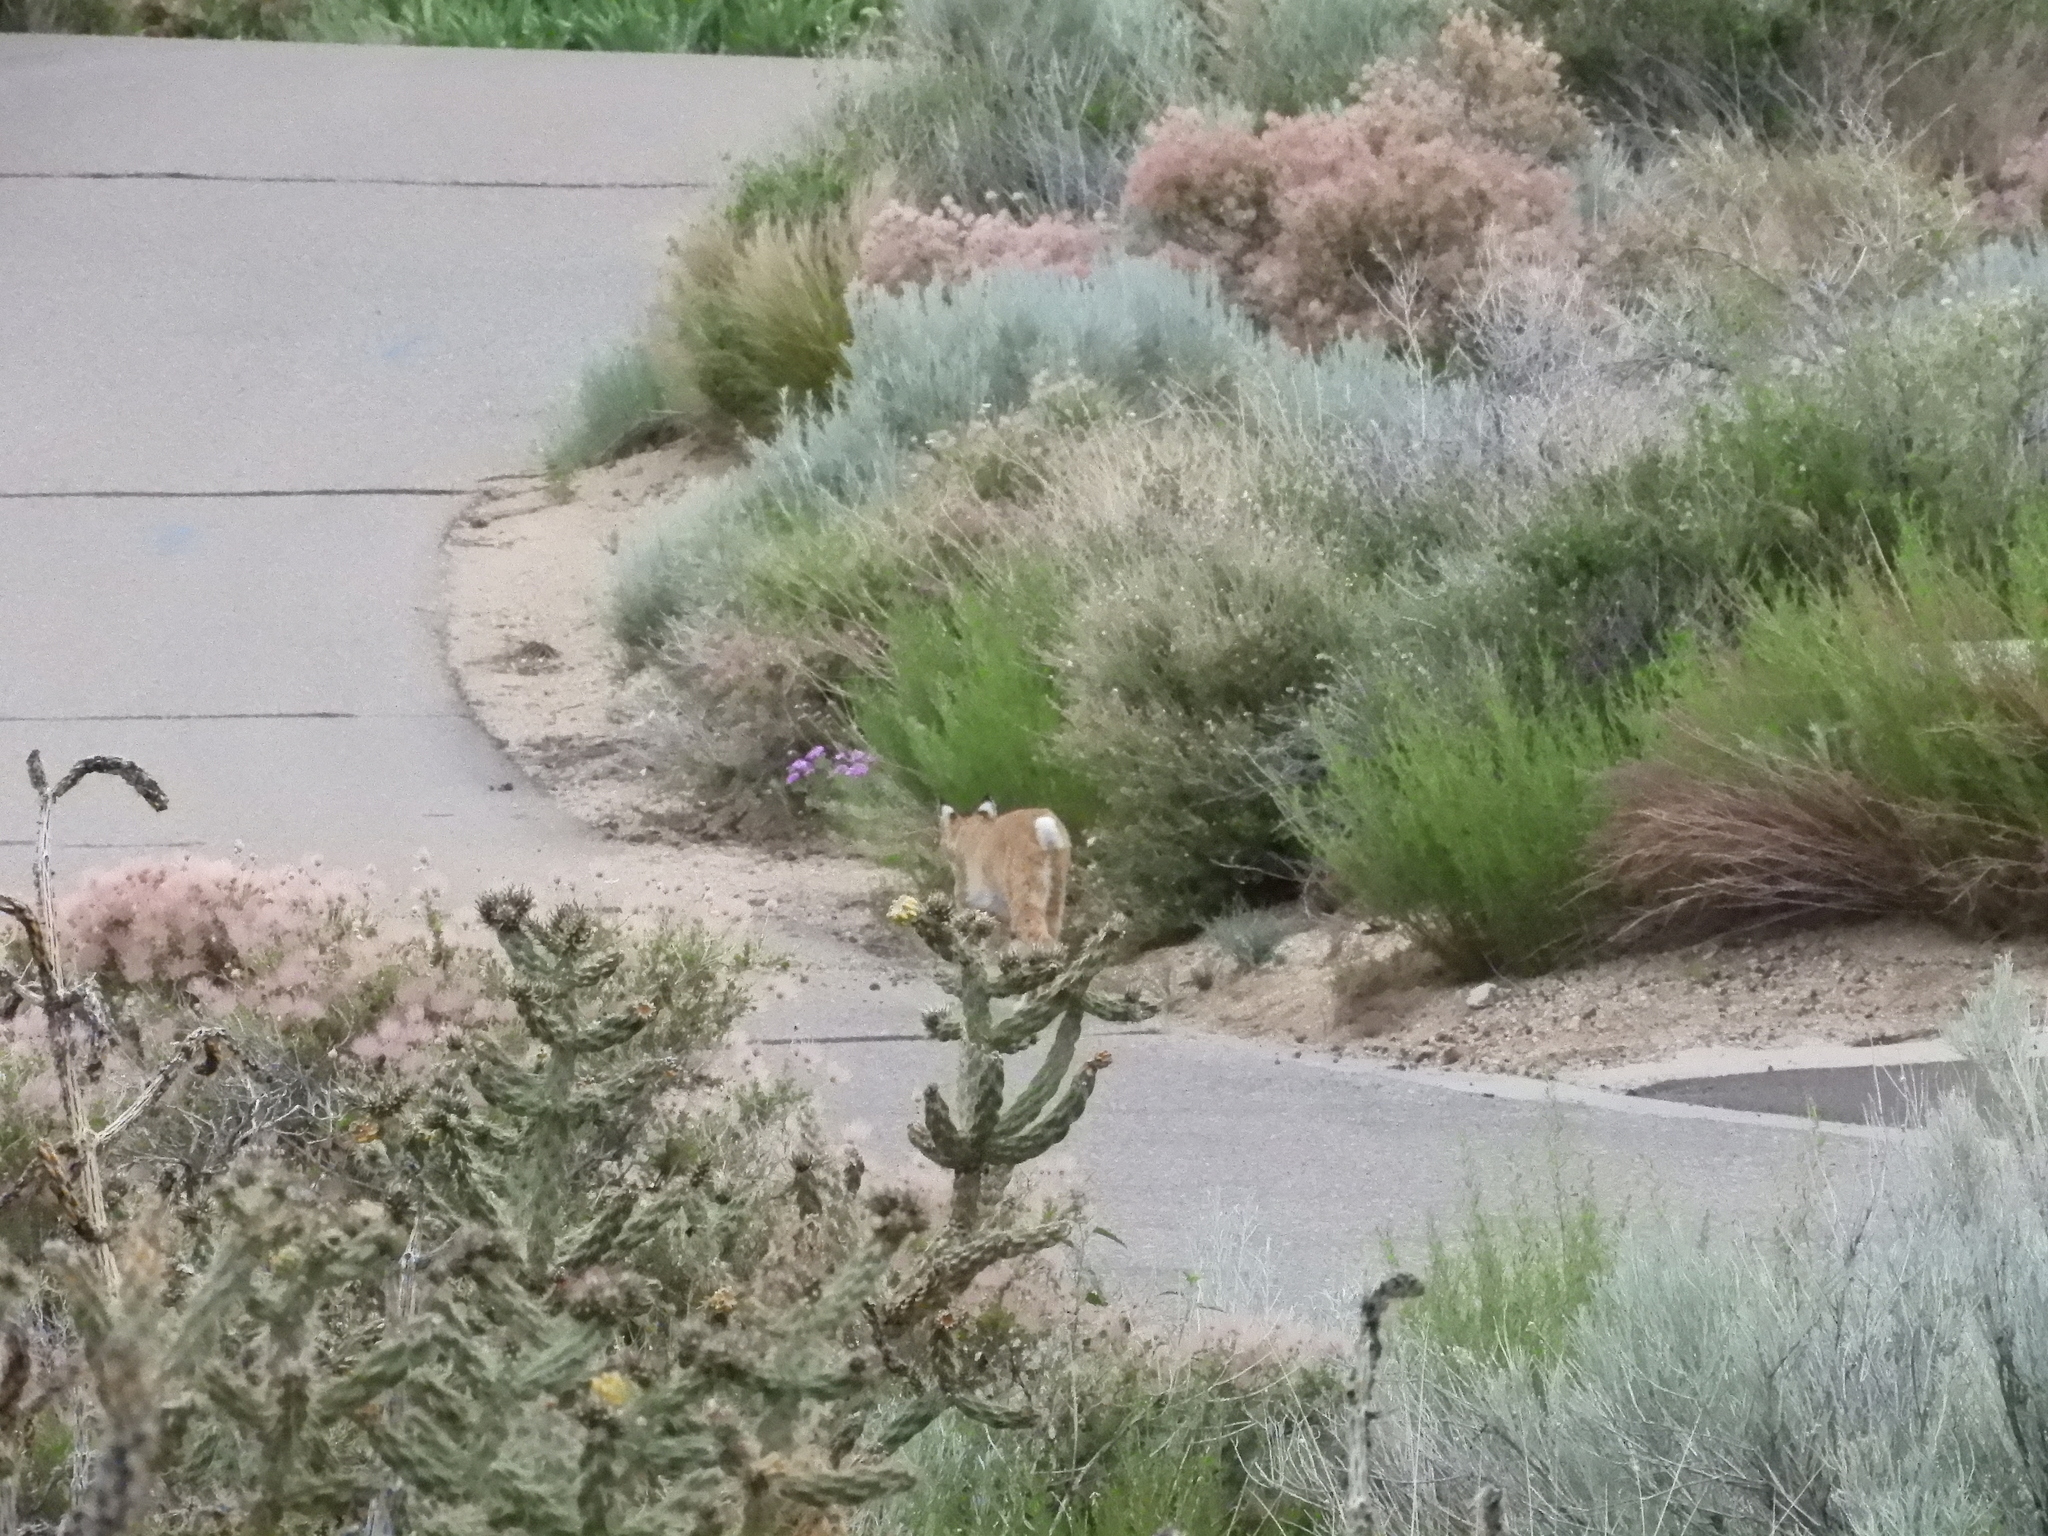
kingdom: Animalia
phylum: Chordata
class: Mammalia
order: Carnivora
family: Felidae
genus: Lynx
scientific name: Lynx rufus
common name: Bobcat
